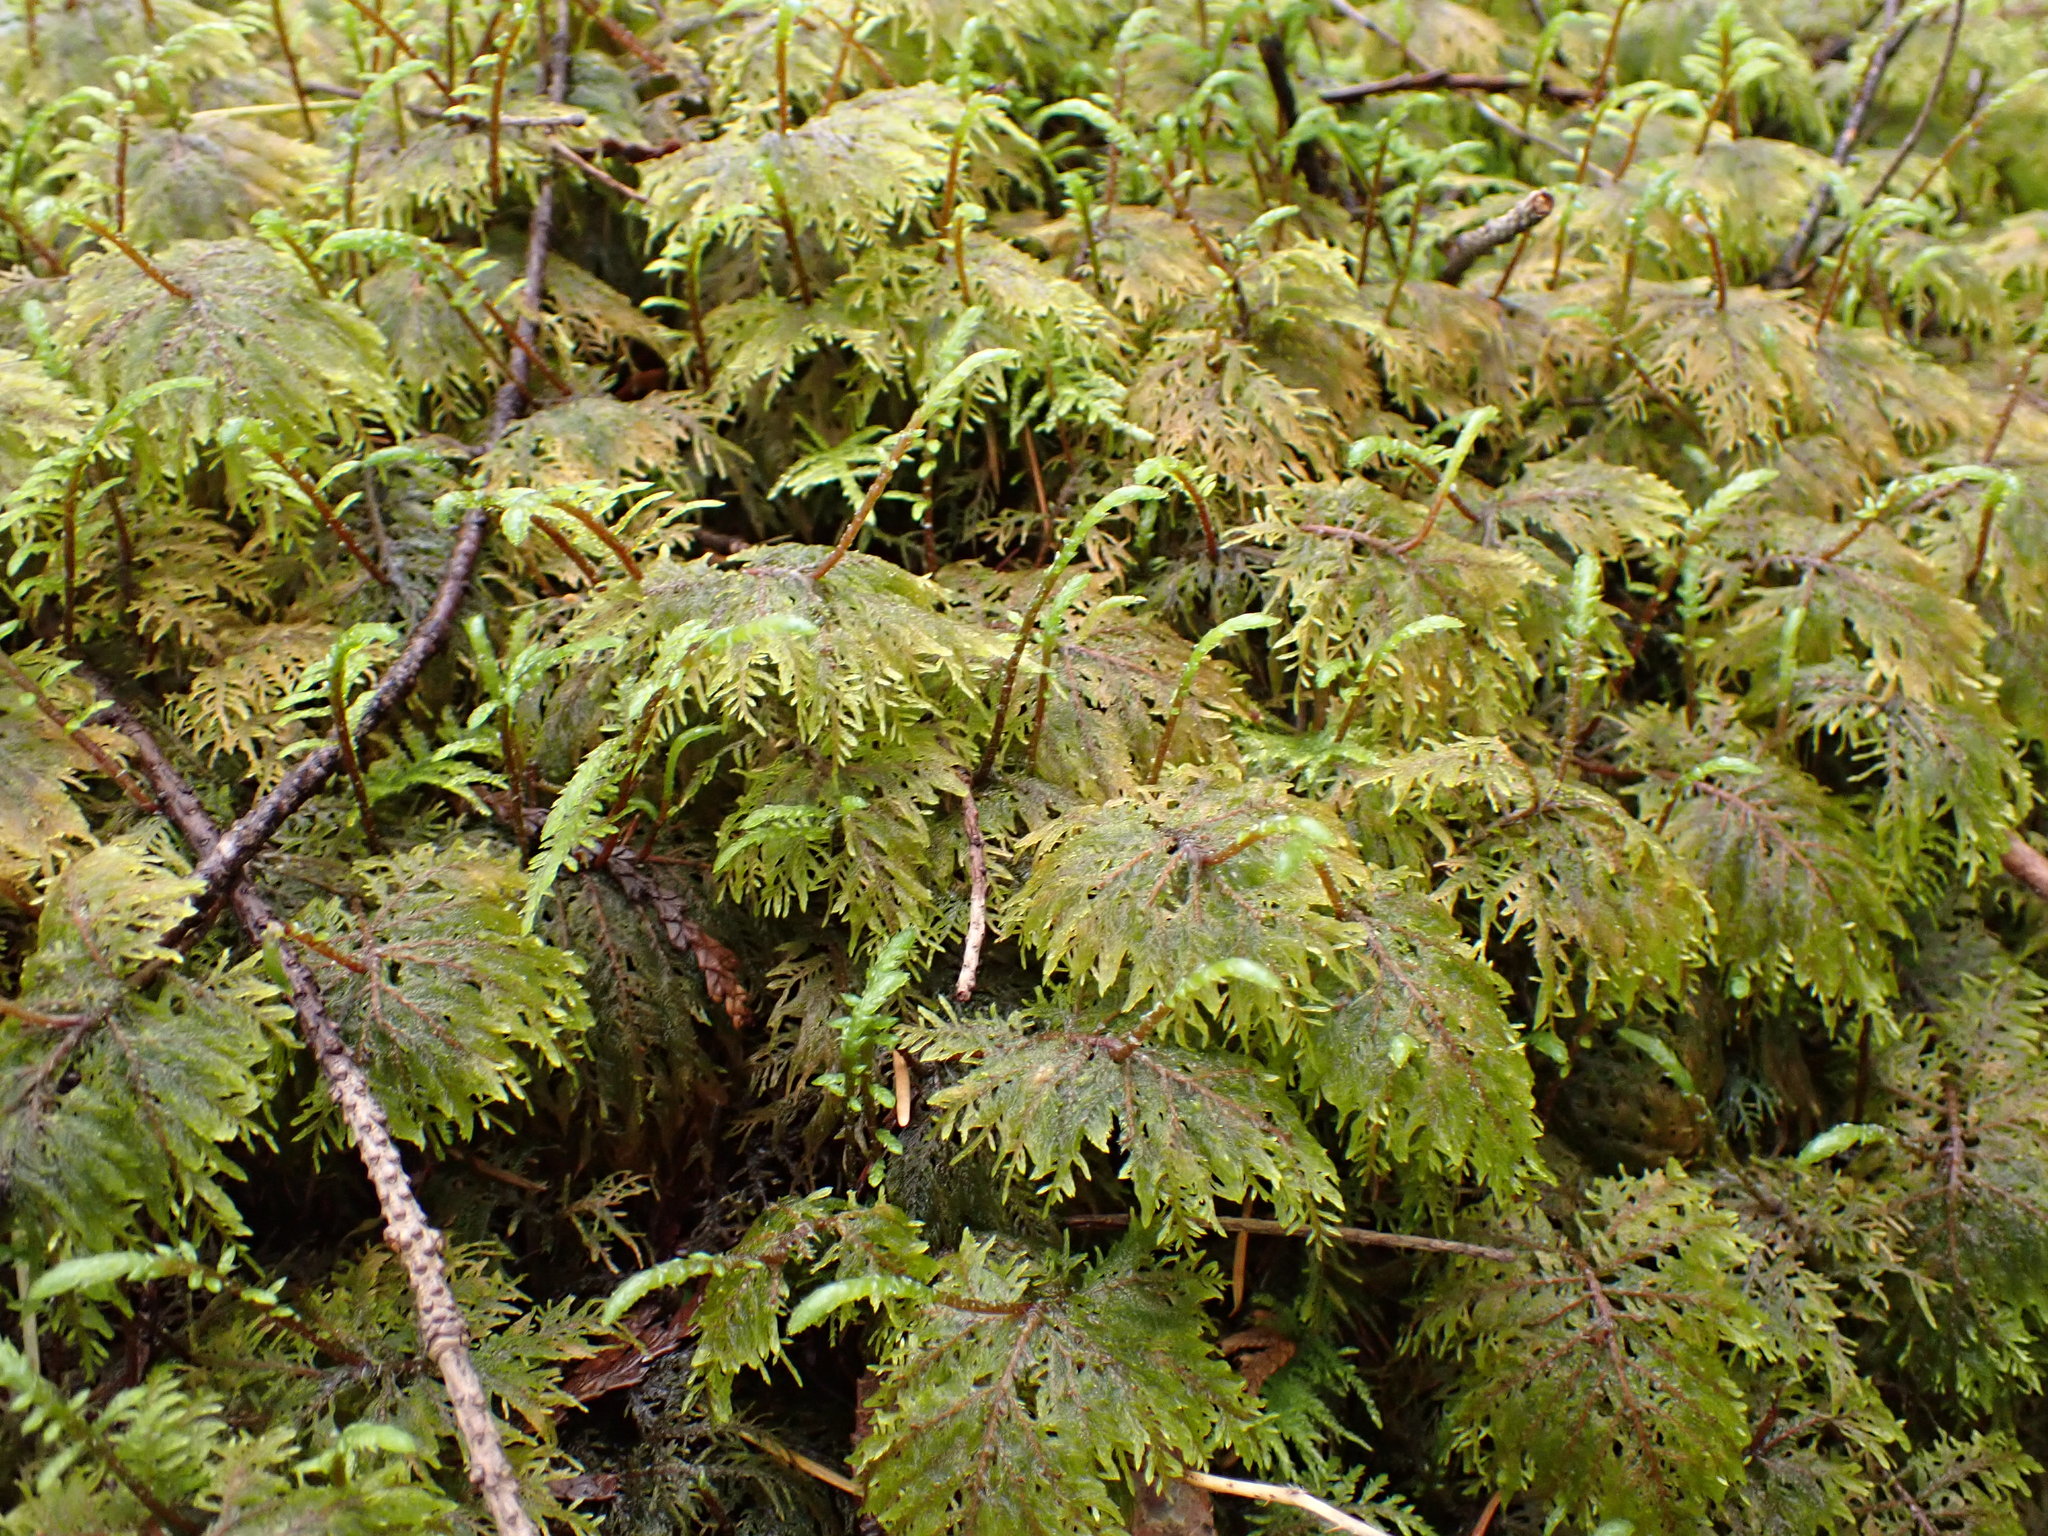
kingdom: Plantae
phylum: Bryophyta
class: Bryopsida
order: Hypnales
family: Hylocomiaceae
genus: Hylocomium
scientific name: Hylocomium splendens
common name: Stairstep moss
